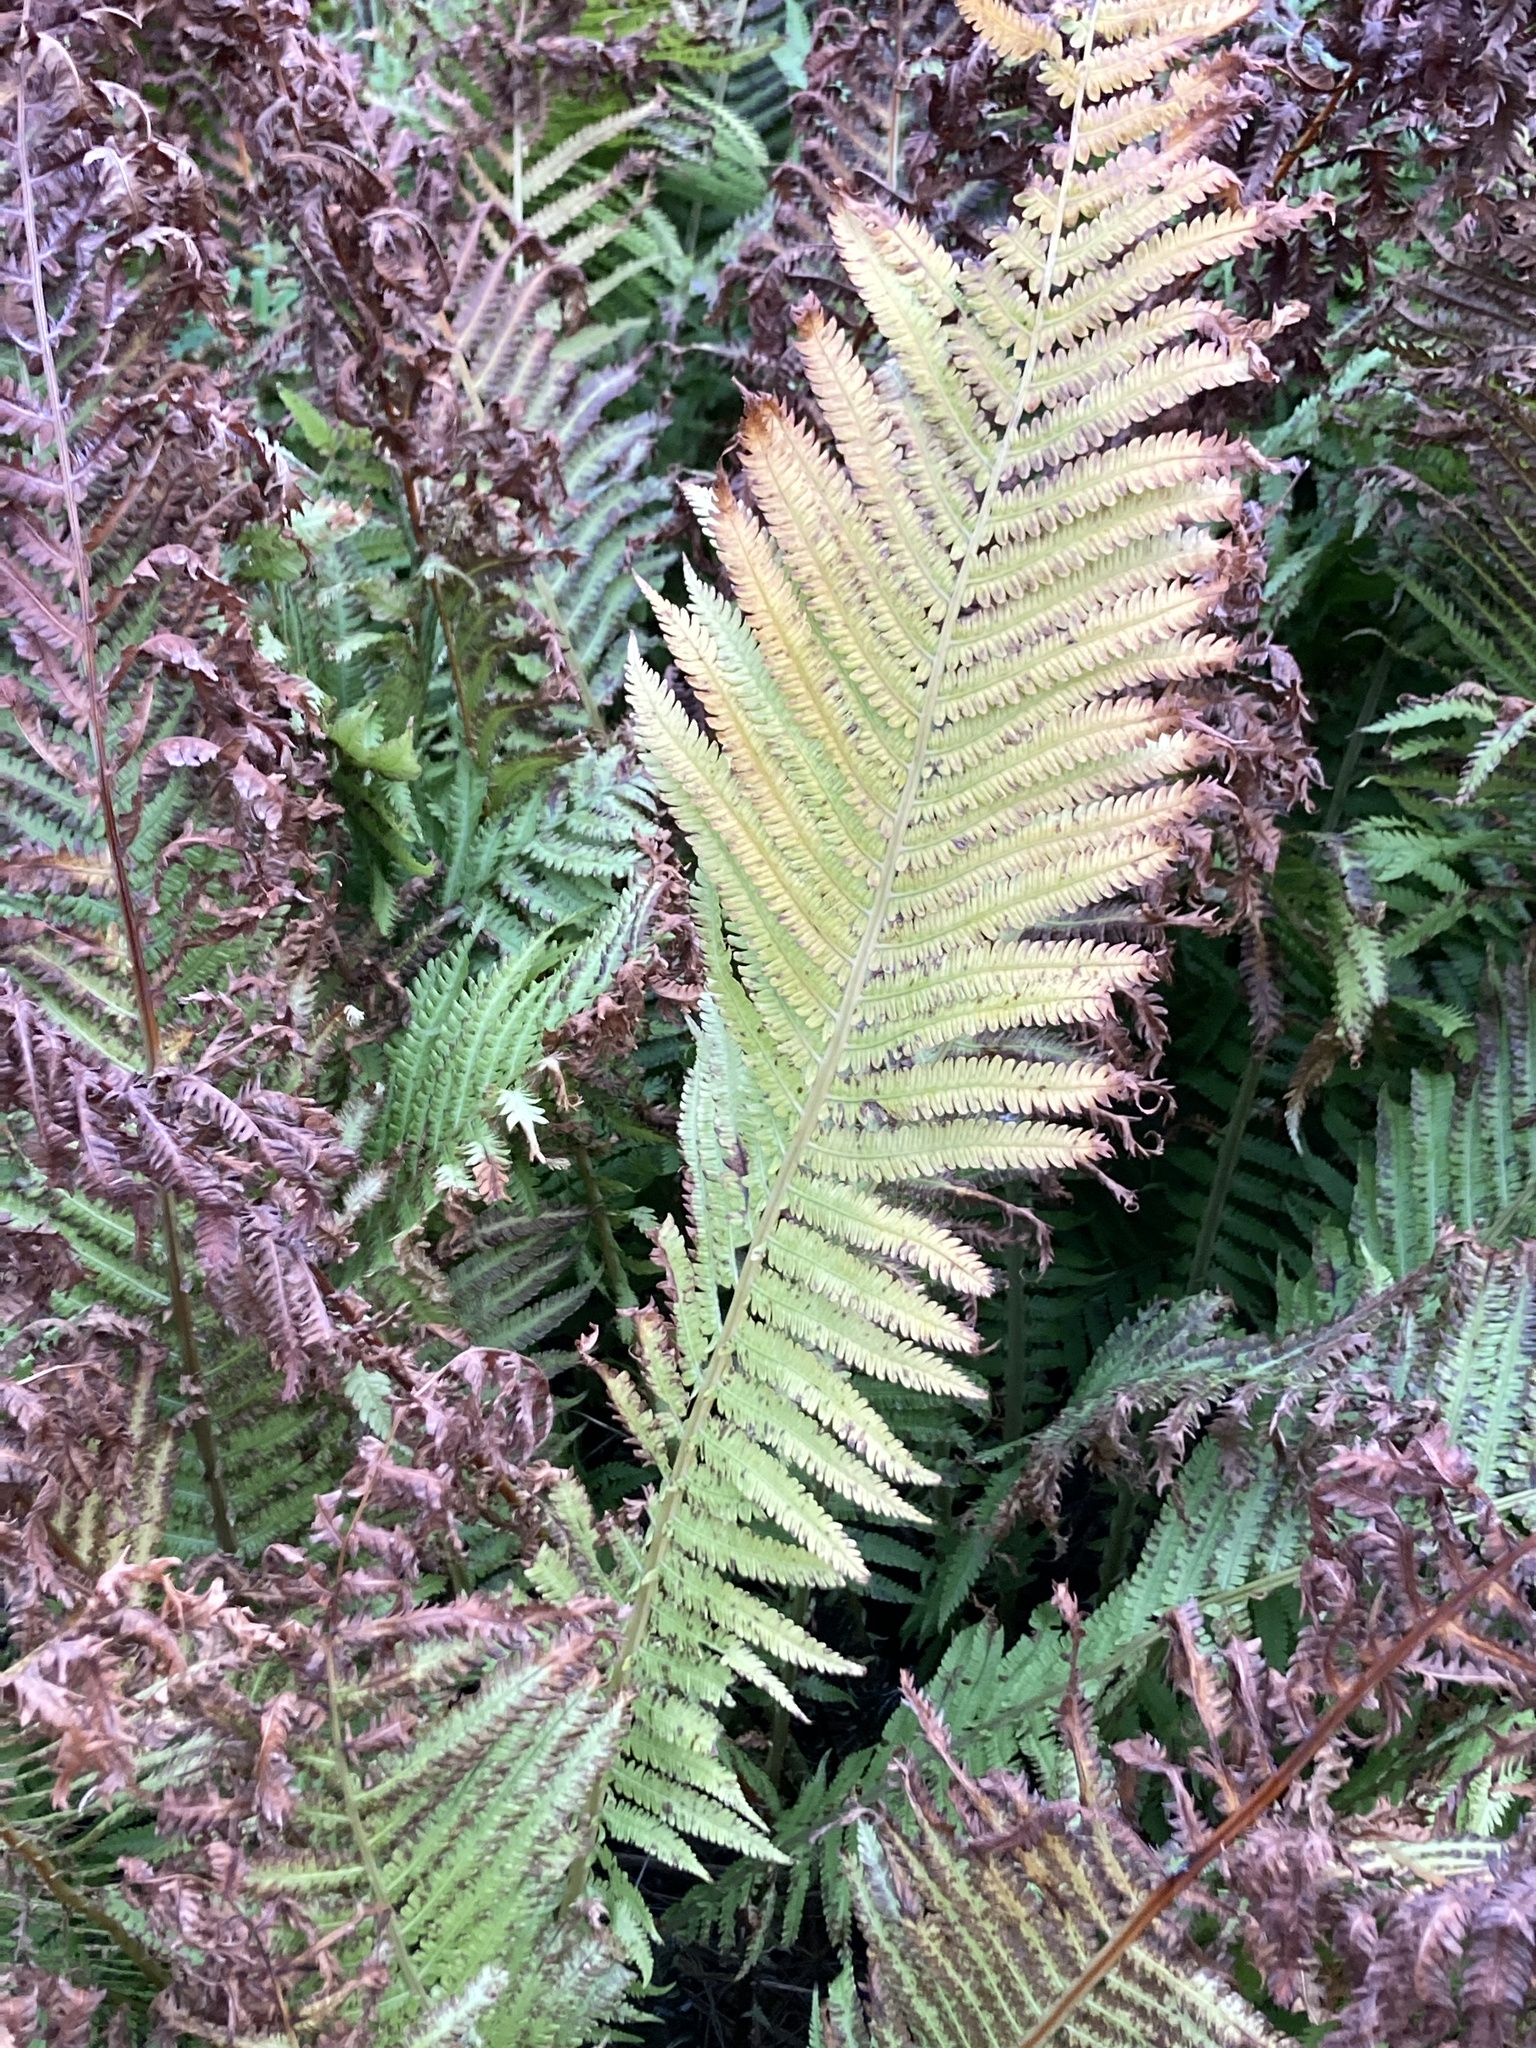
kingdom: Plantae
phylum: Tracheophyta
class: Polypodiopsida
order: Polypodiales
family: Onocleaceae
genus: Matteuccia
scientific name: Matteuccia struthiopteris
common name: Ostrich fern
